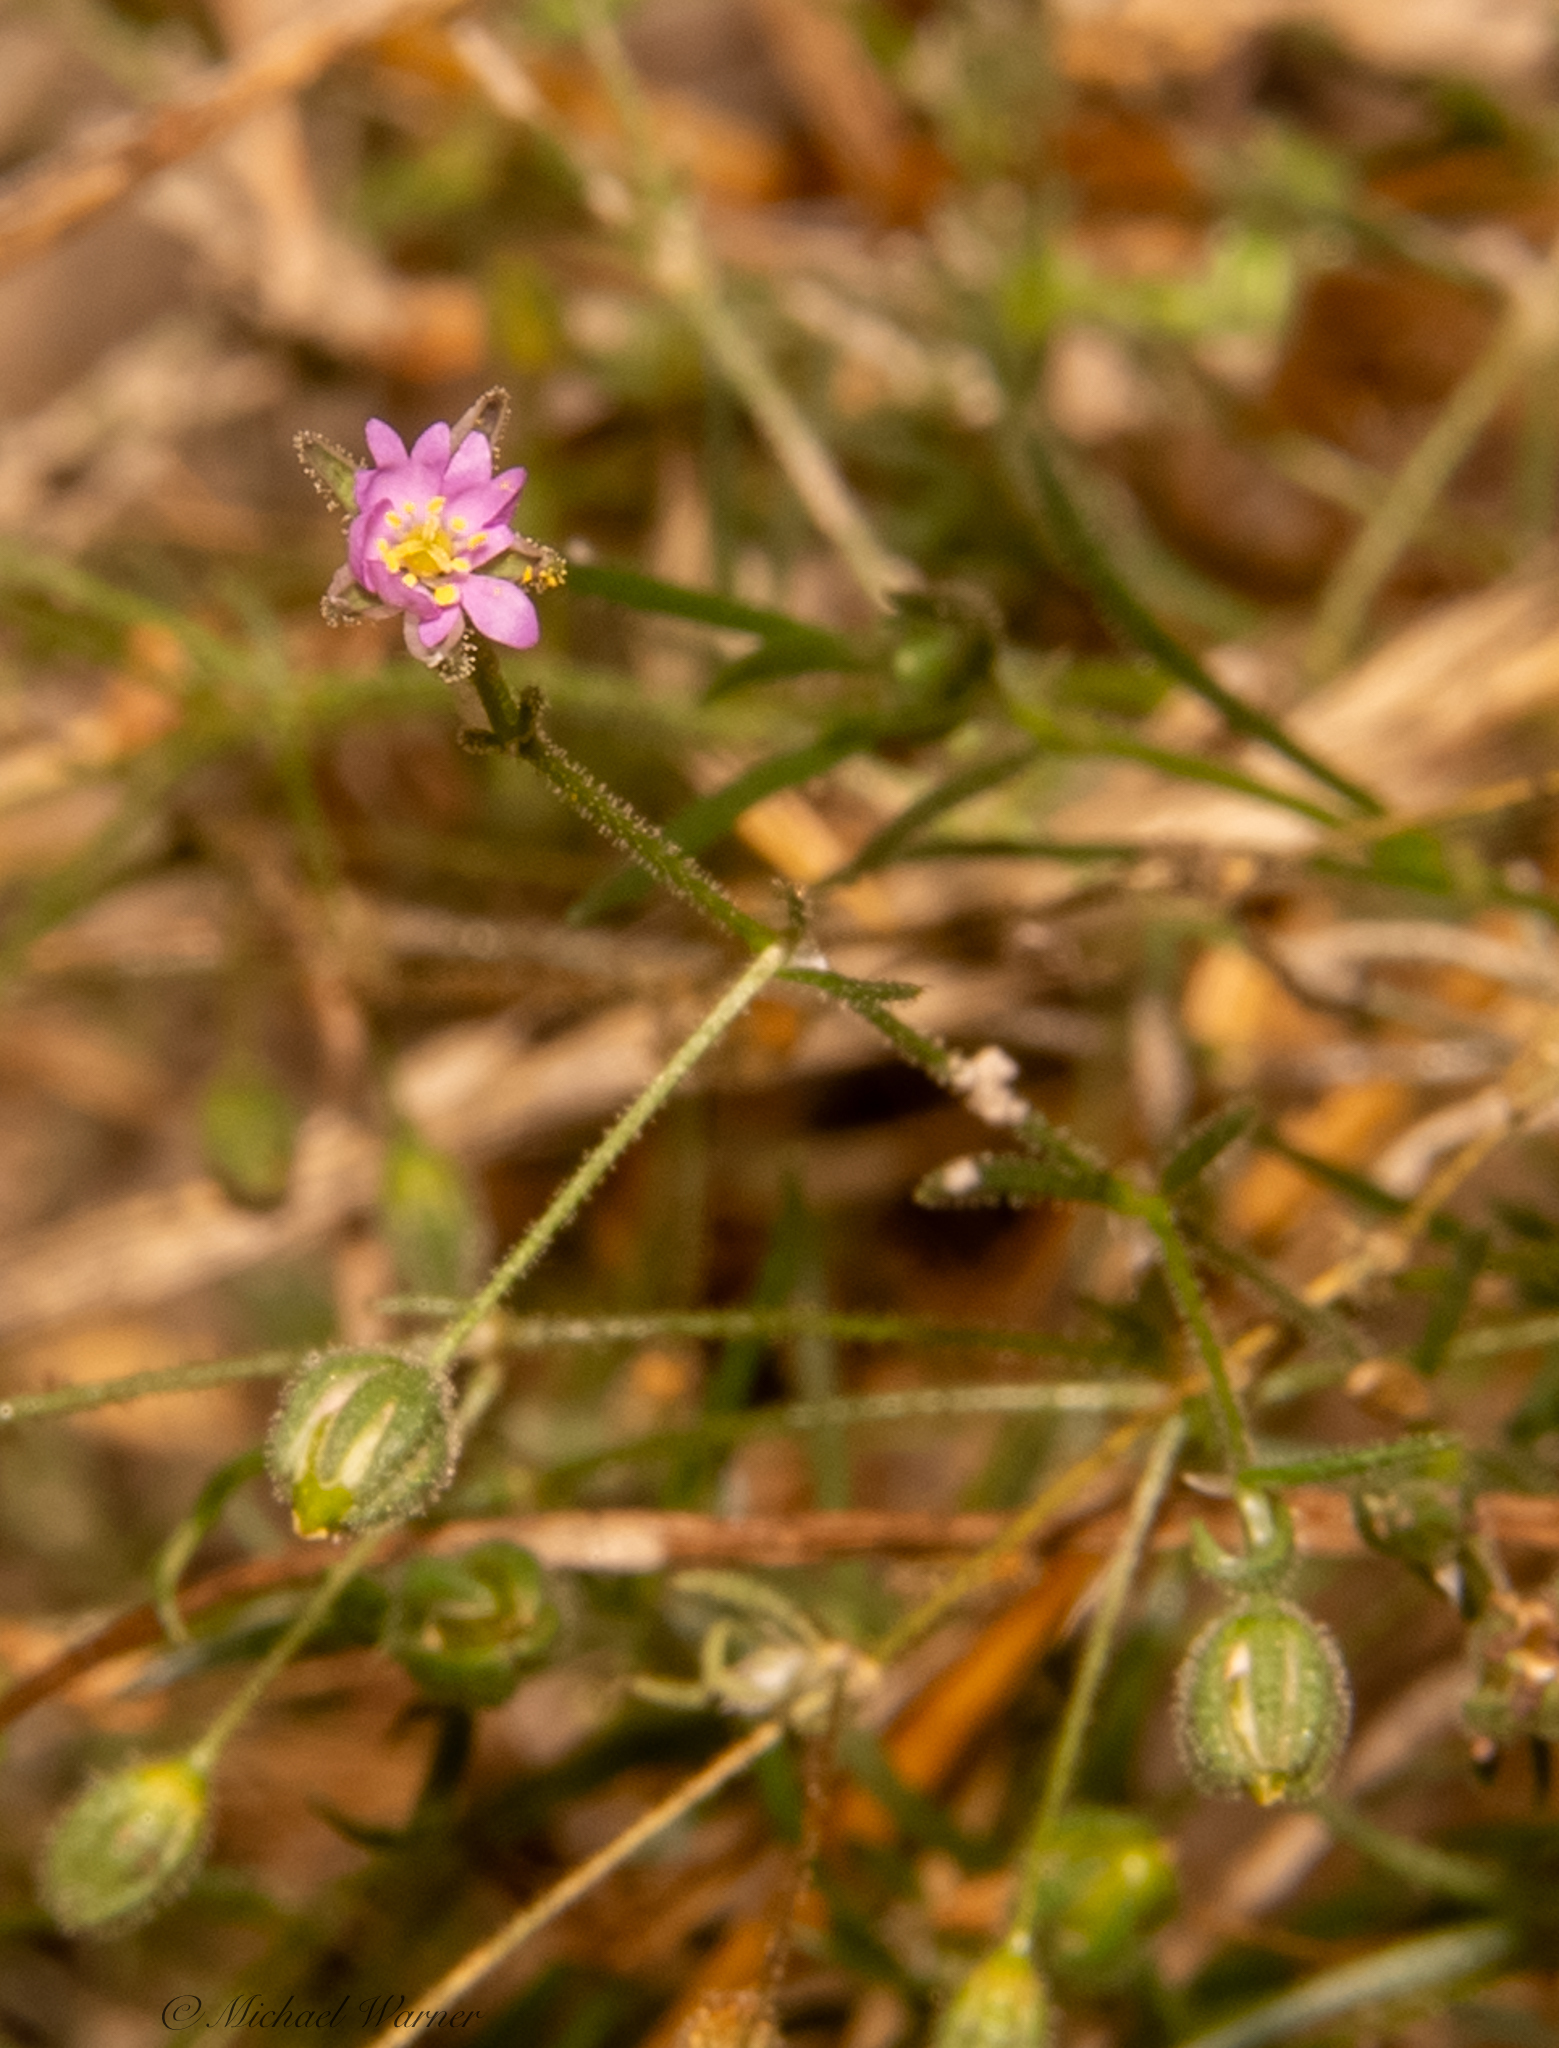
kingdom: Plantae
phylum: Tracheophyta
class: Magnoliopsida
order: Caryophyllales
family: Caryophyllaceae
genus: Spergularia
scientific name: Spergularia rubra
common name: Red sand-spurrey
